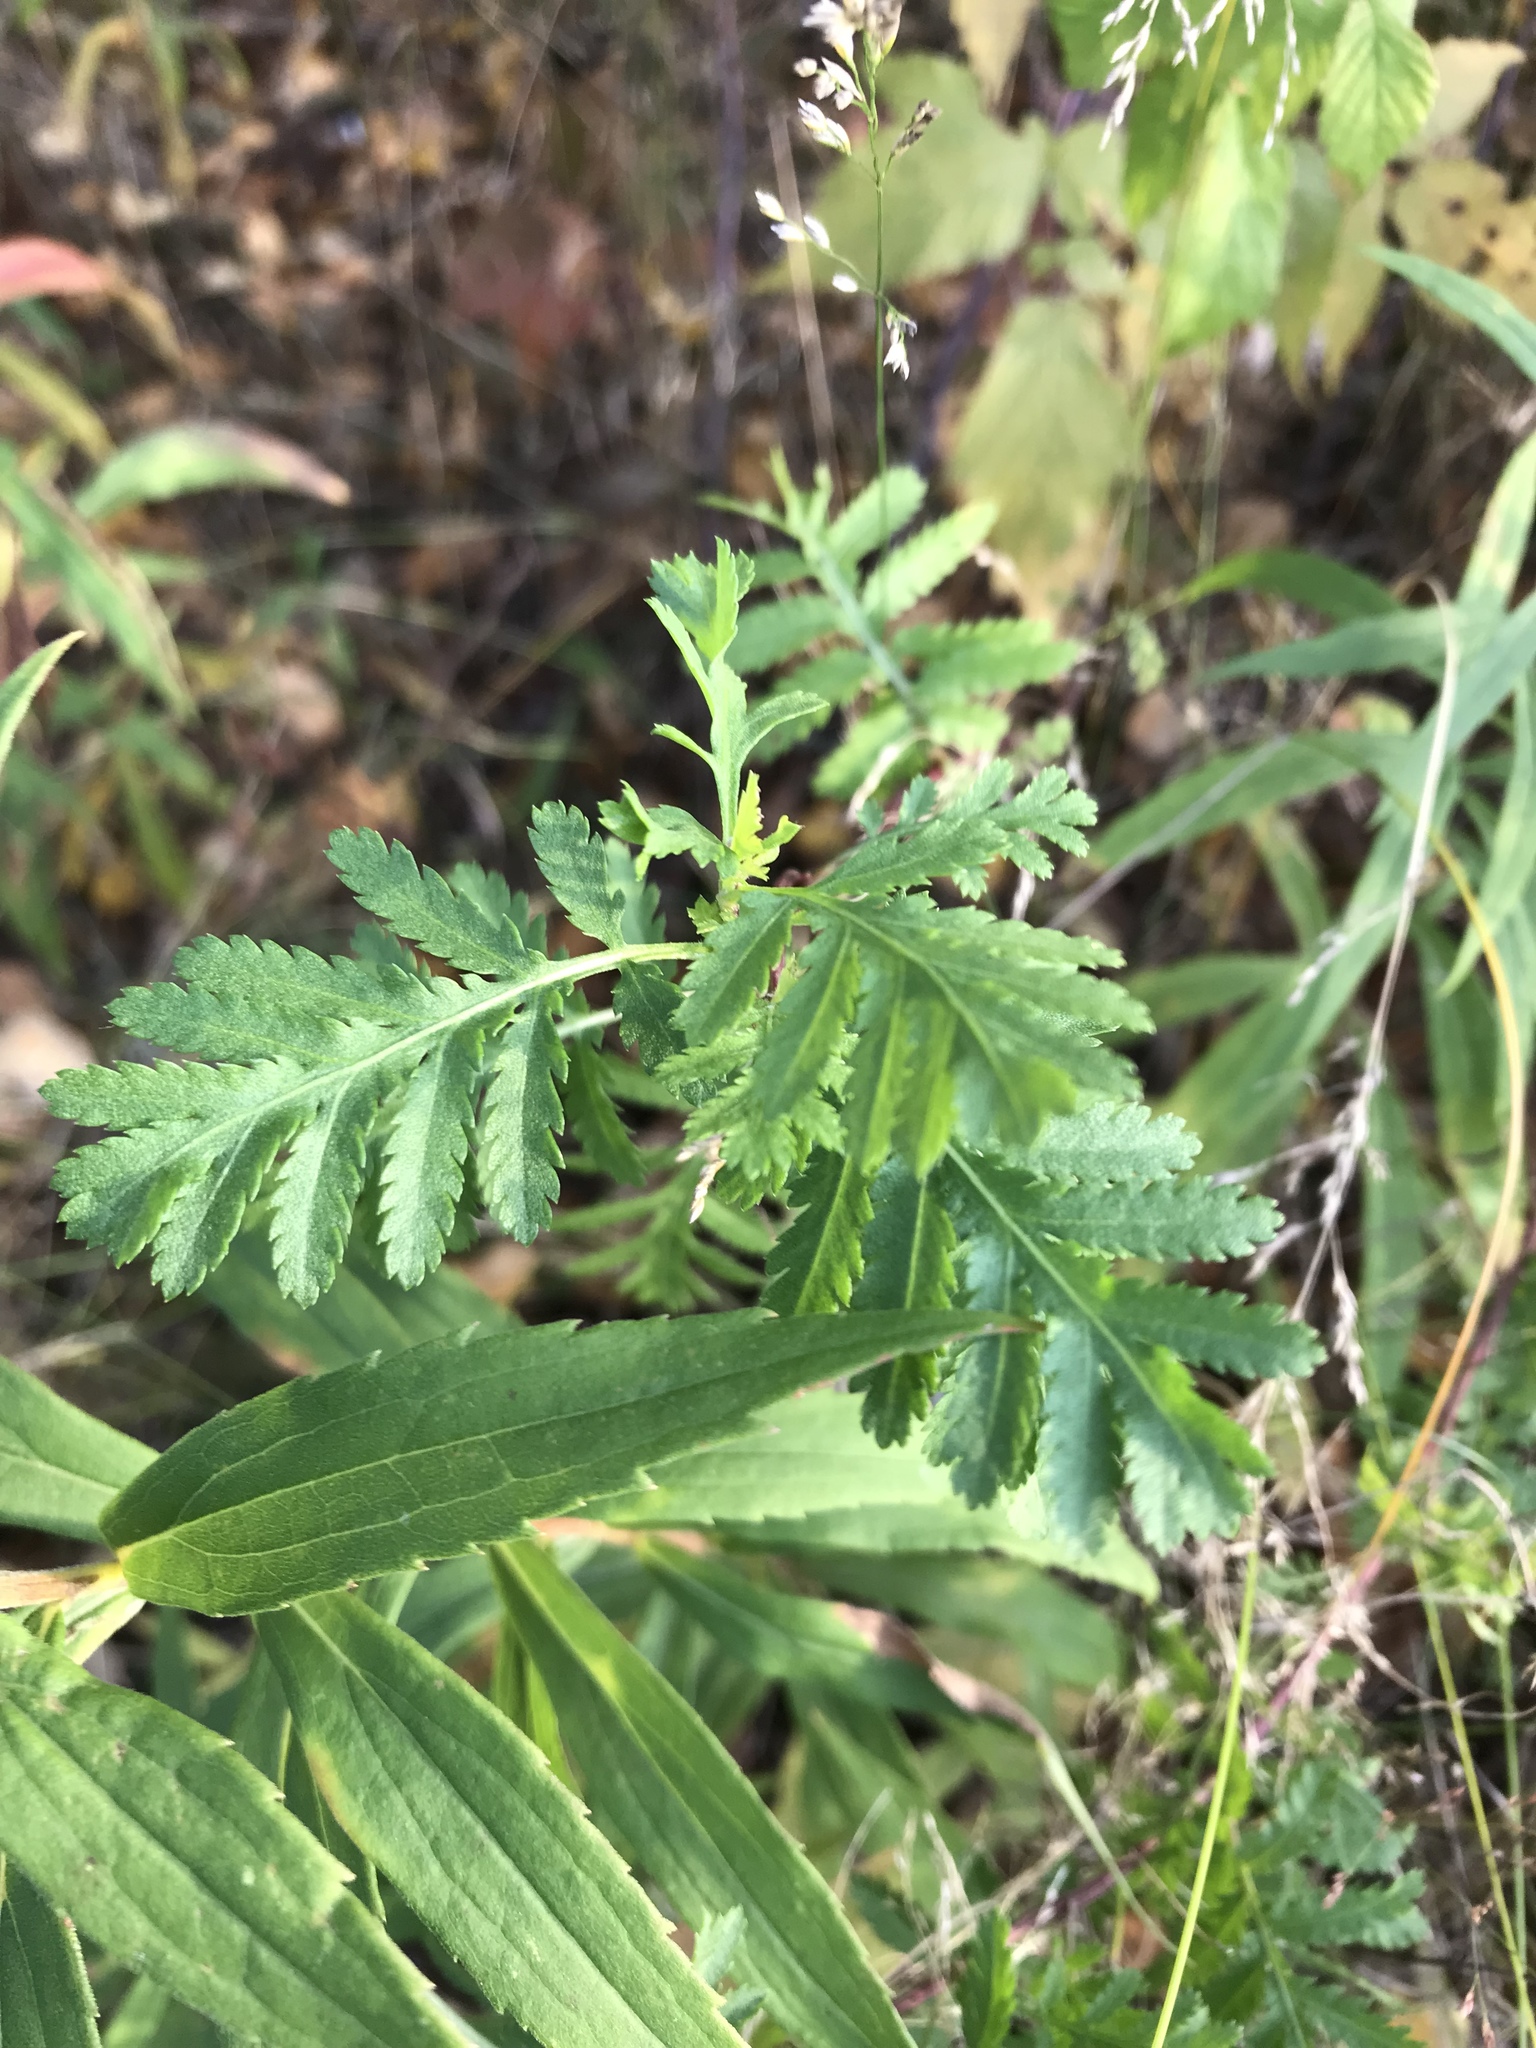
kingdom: Plantae
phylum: Tracheophyta
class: Magnoliopsida
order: Asterales
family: Asteraceae
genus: Tanacetum
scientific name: Tanacetum vulgare
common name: Common tansy
